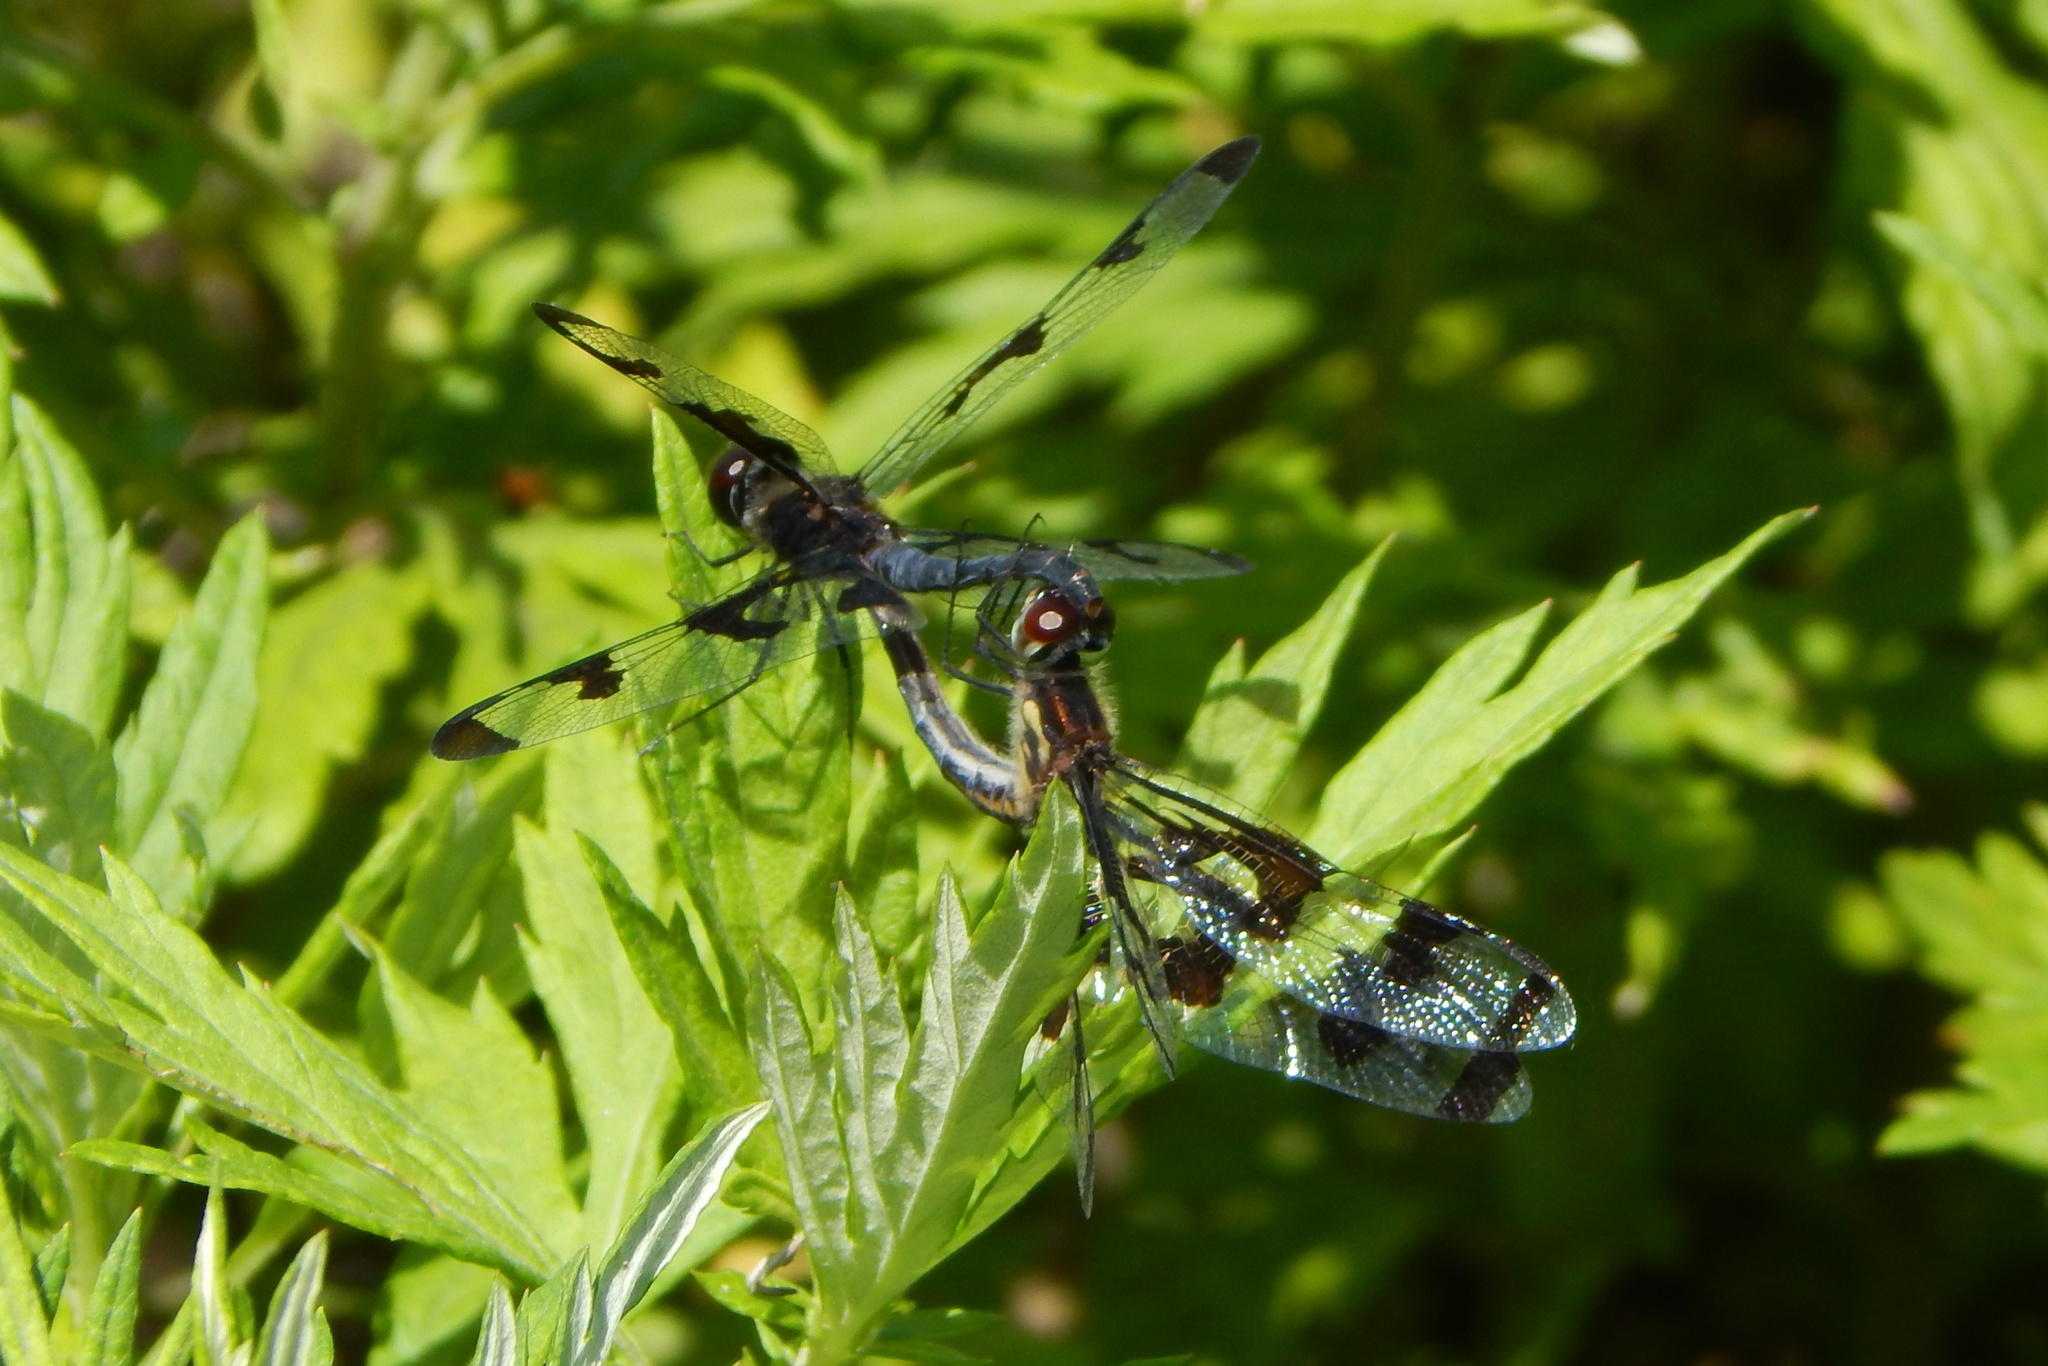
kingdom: Animalia
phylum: Arthropoda
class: Insecta
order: Odonata
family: Libellulidae
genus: Celithemis
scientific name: Celithemis fasciata
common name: Banded pennant
